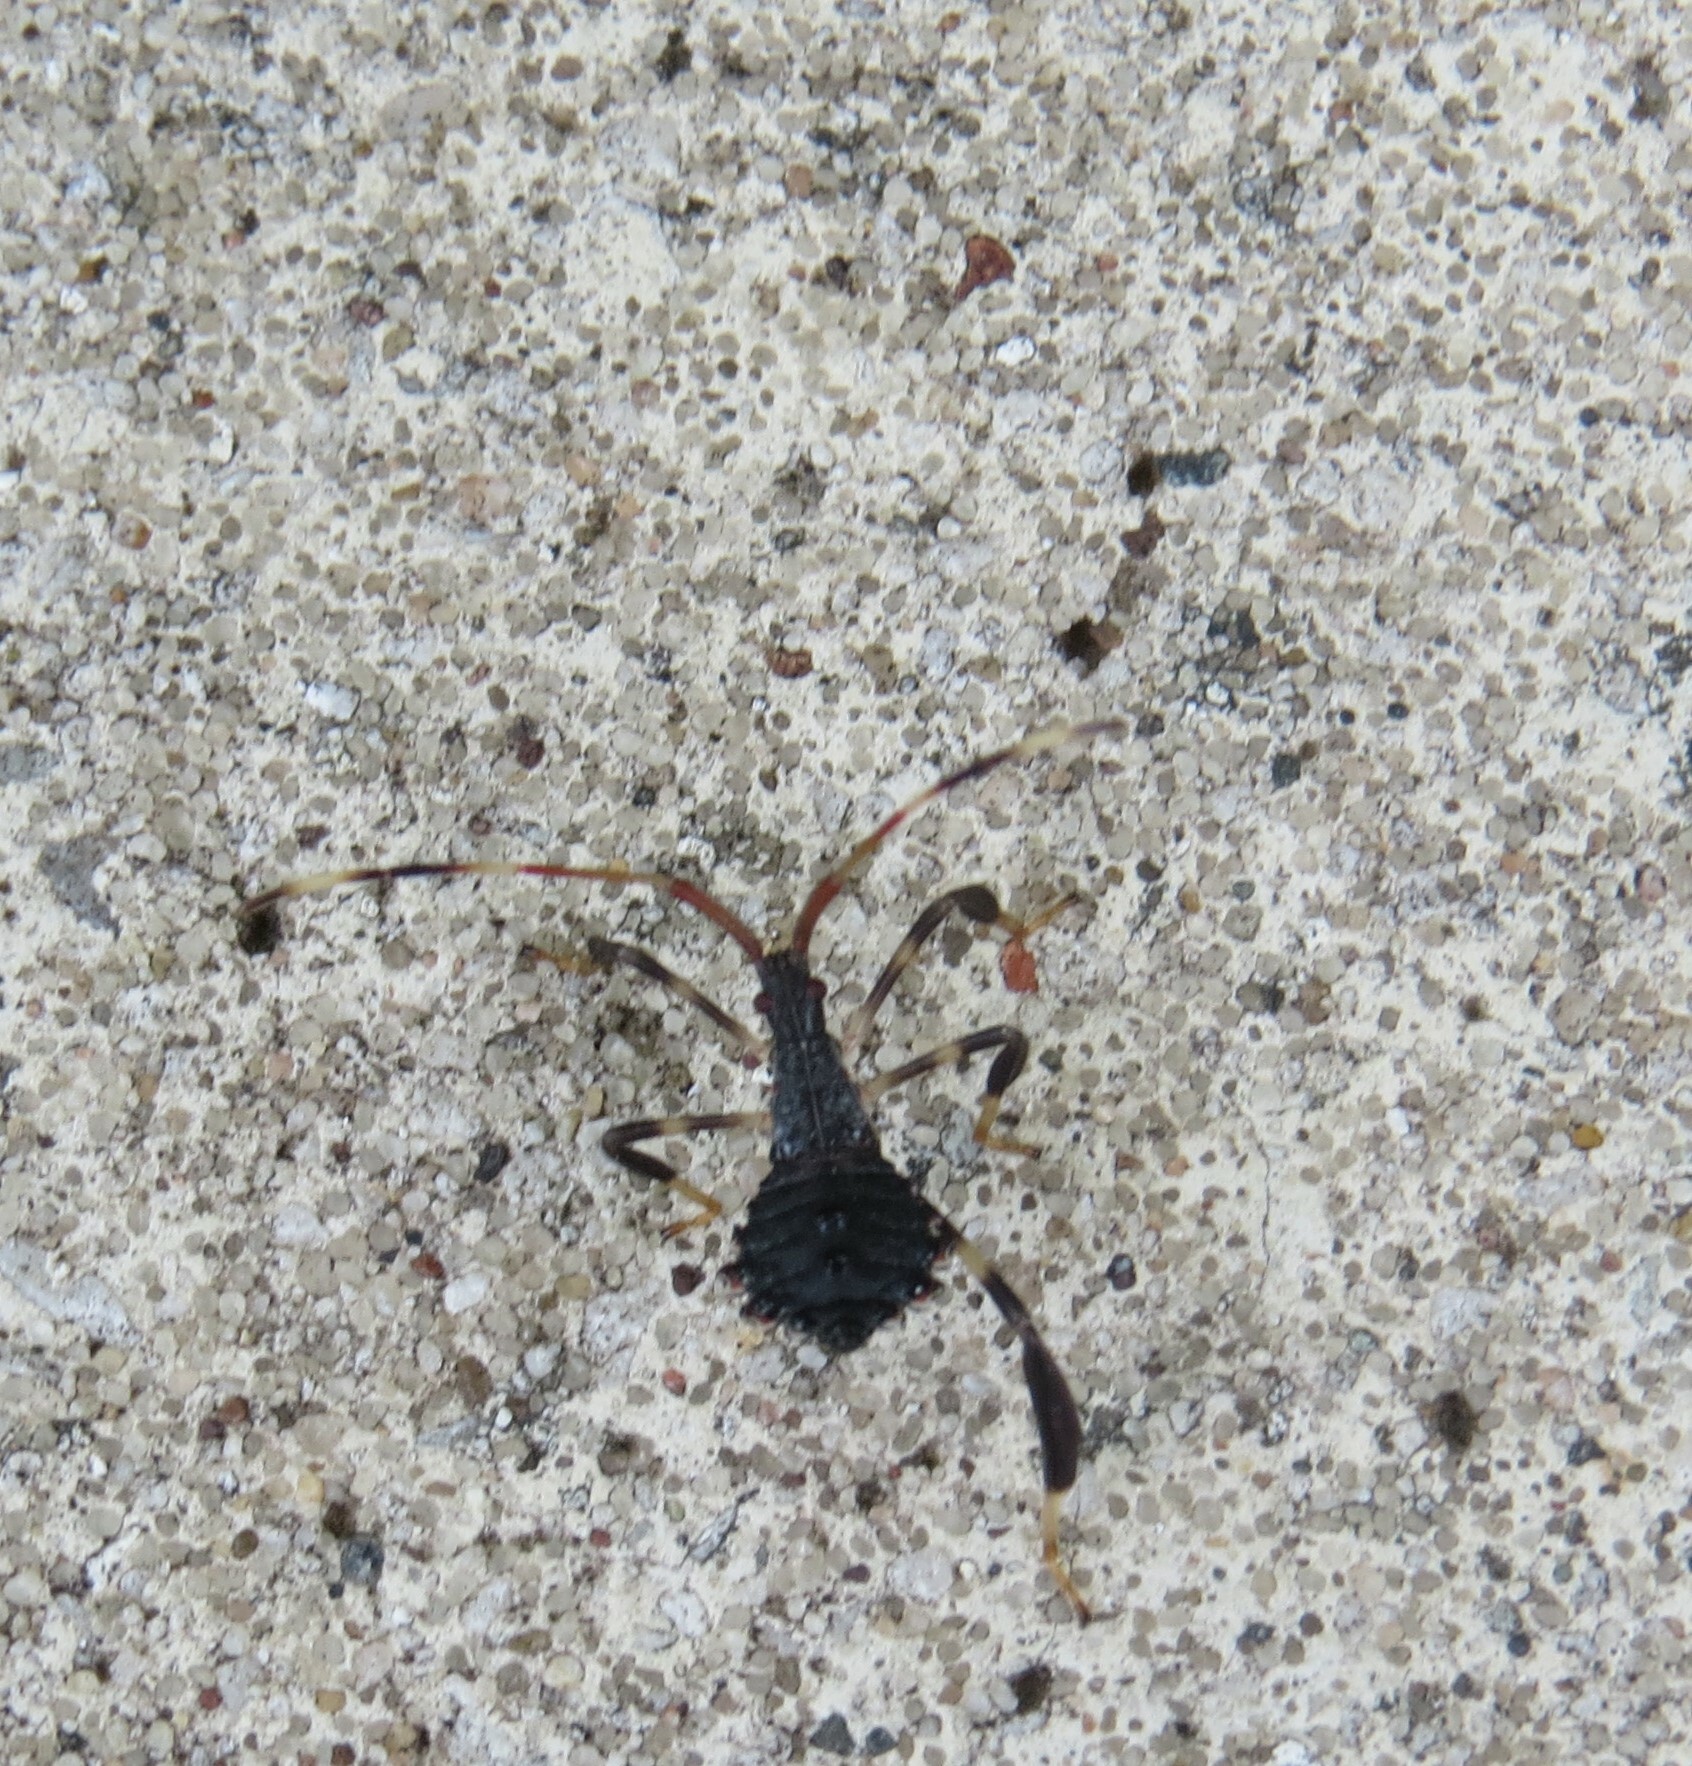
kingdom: Animalia
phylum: Arthropoda
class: Insecta
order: Hemiptera
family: Coreidae
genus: Acanthocephala
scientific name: Acanthocephala terminalis
